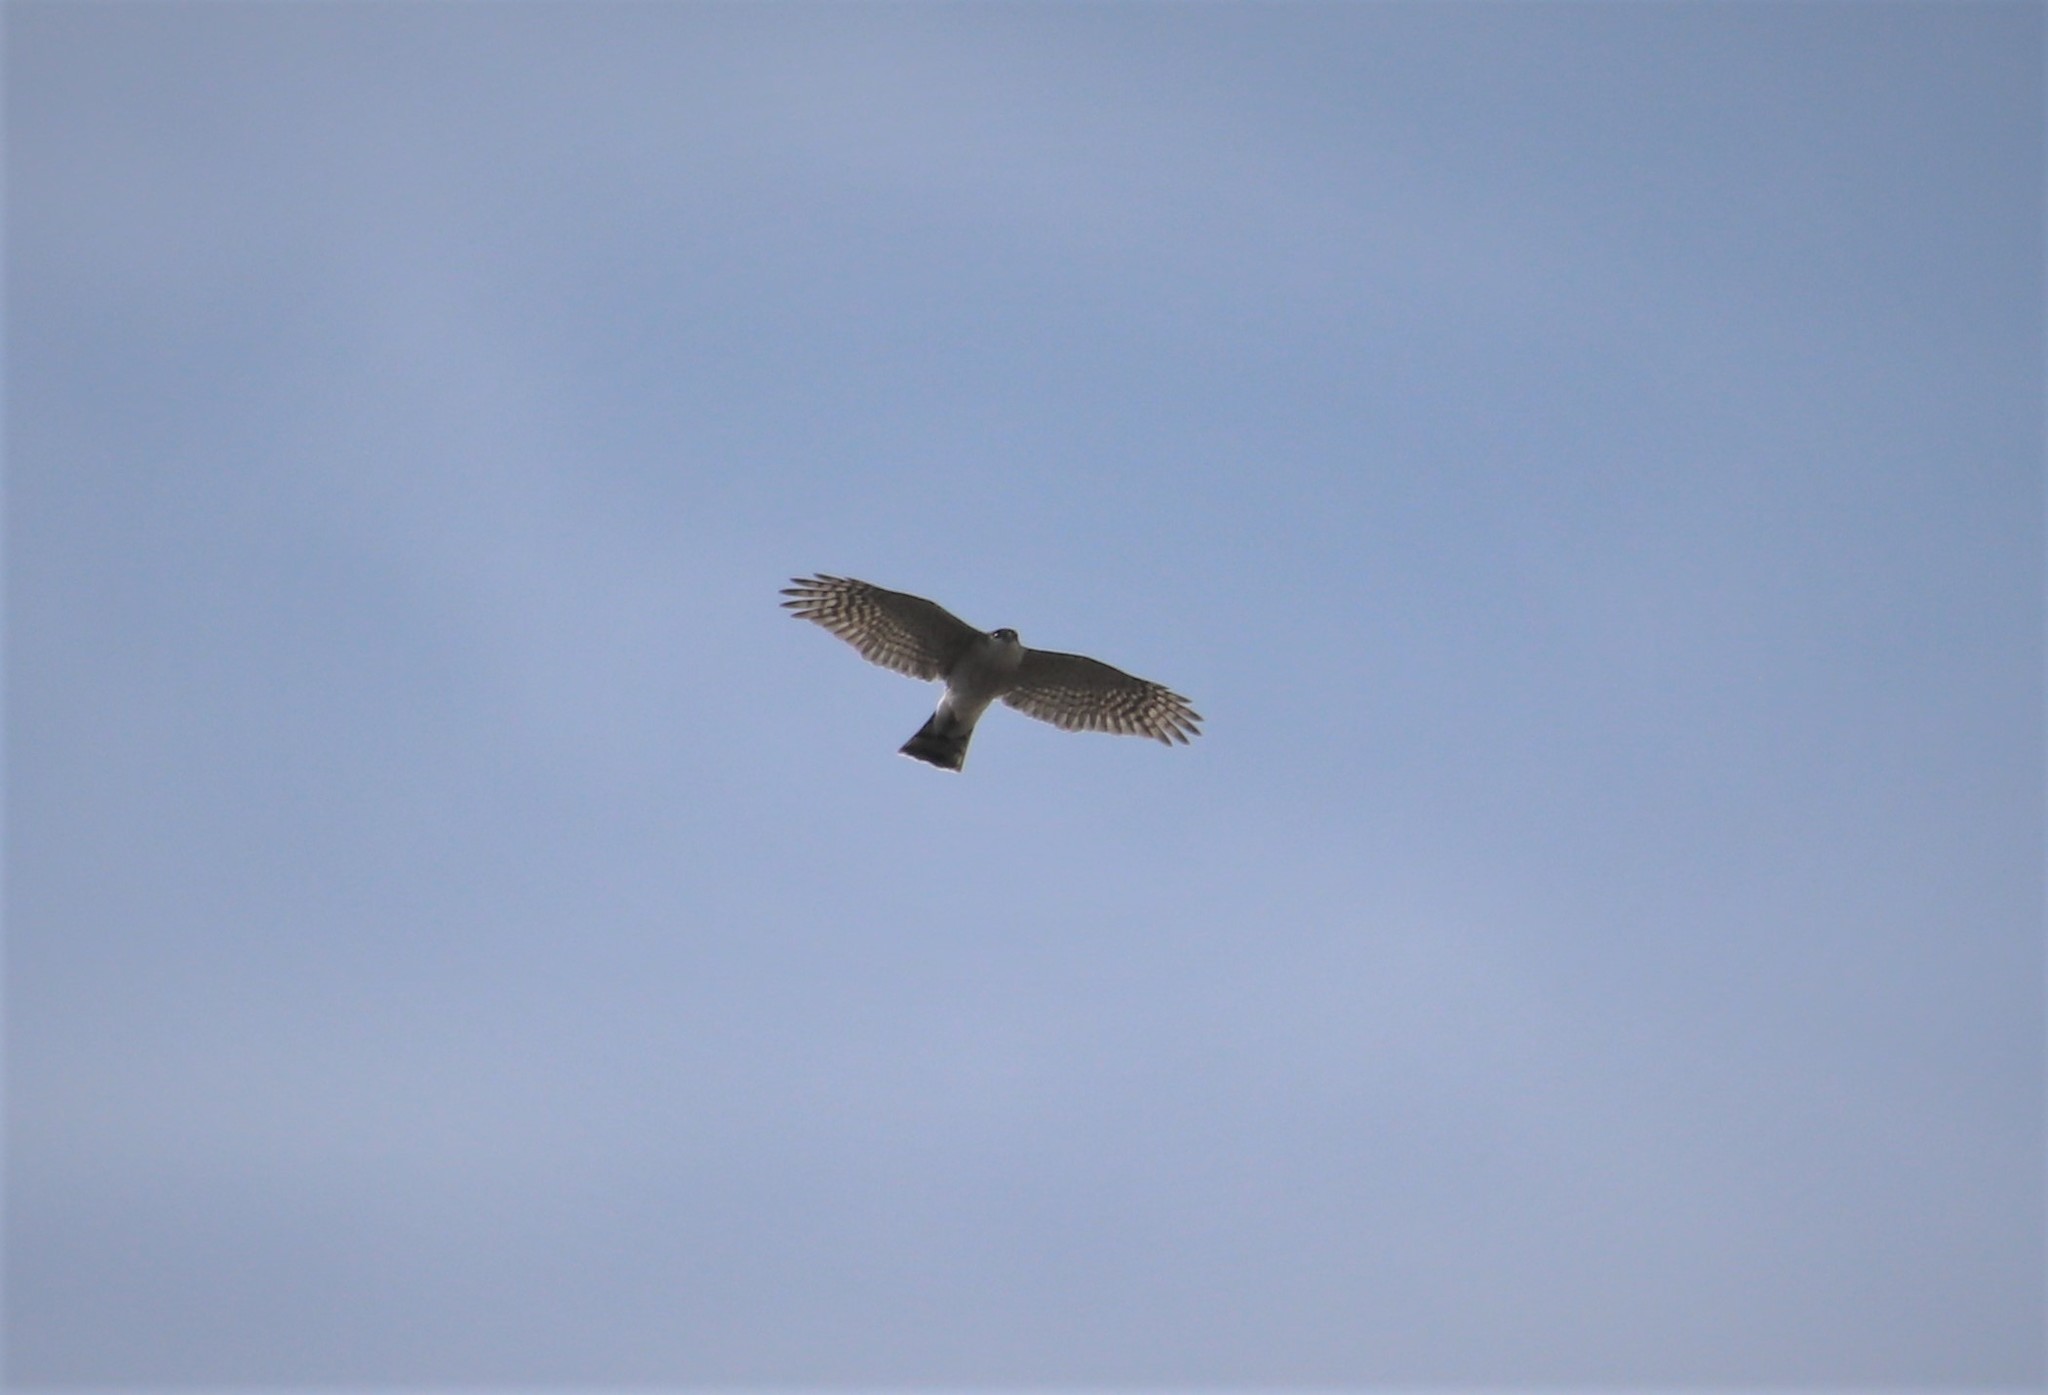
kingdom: Animalia
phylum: Chordata
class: Aves
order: Accipitriformes
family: Accipitridae
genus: Accipiter
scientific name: Accipiter striatus
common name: Sharp-shinned hawk
